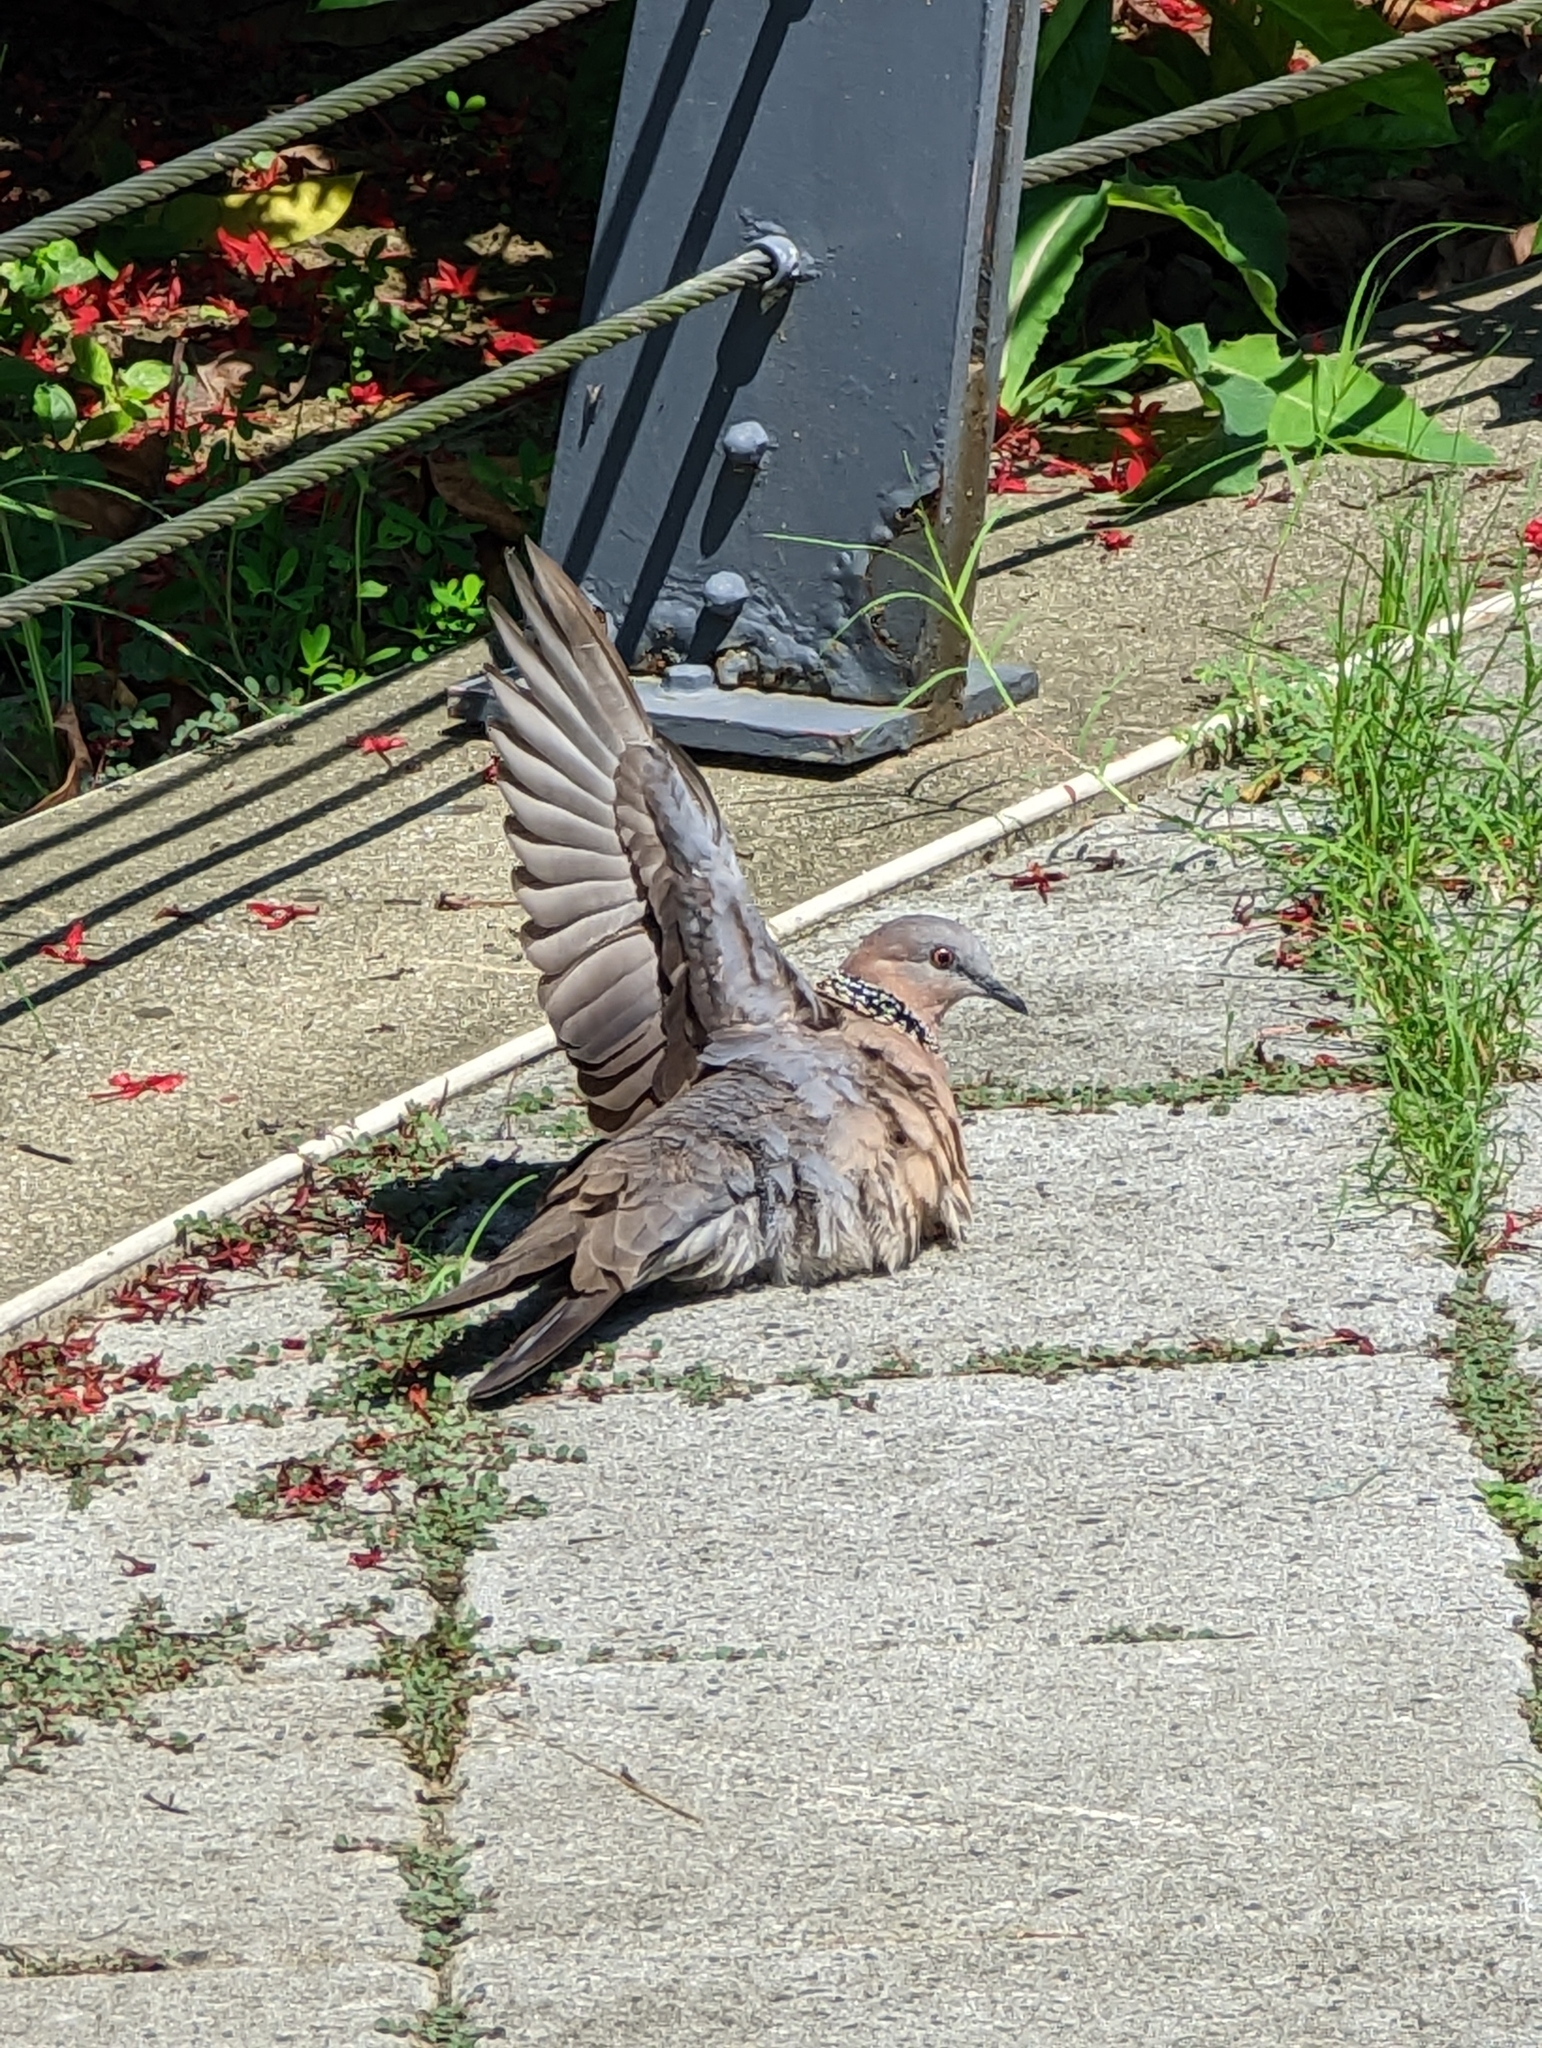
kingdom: Animalia
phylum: Chordata
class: Aves
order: Columbiformes
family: Columbidae
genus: Spilopelia
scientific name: Spilopelia chinensis
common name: Spotted dove
